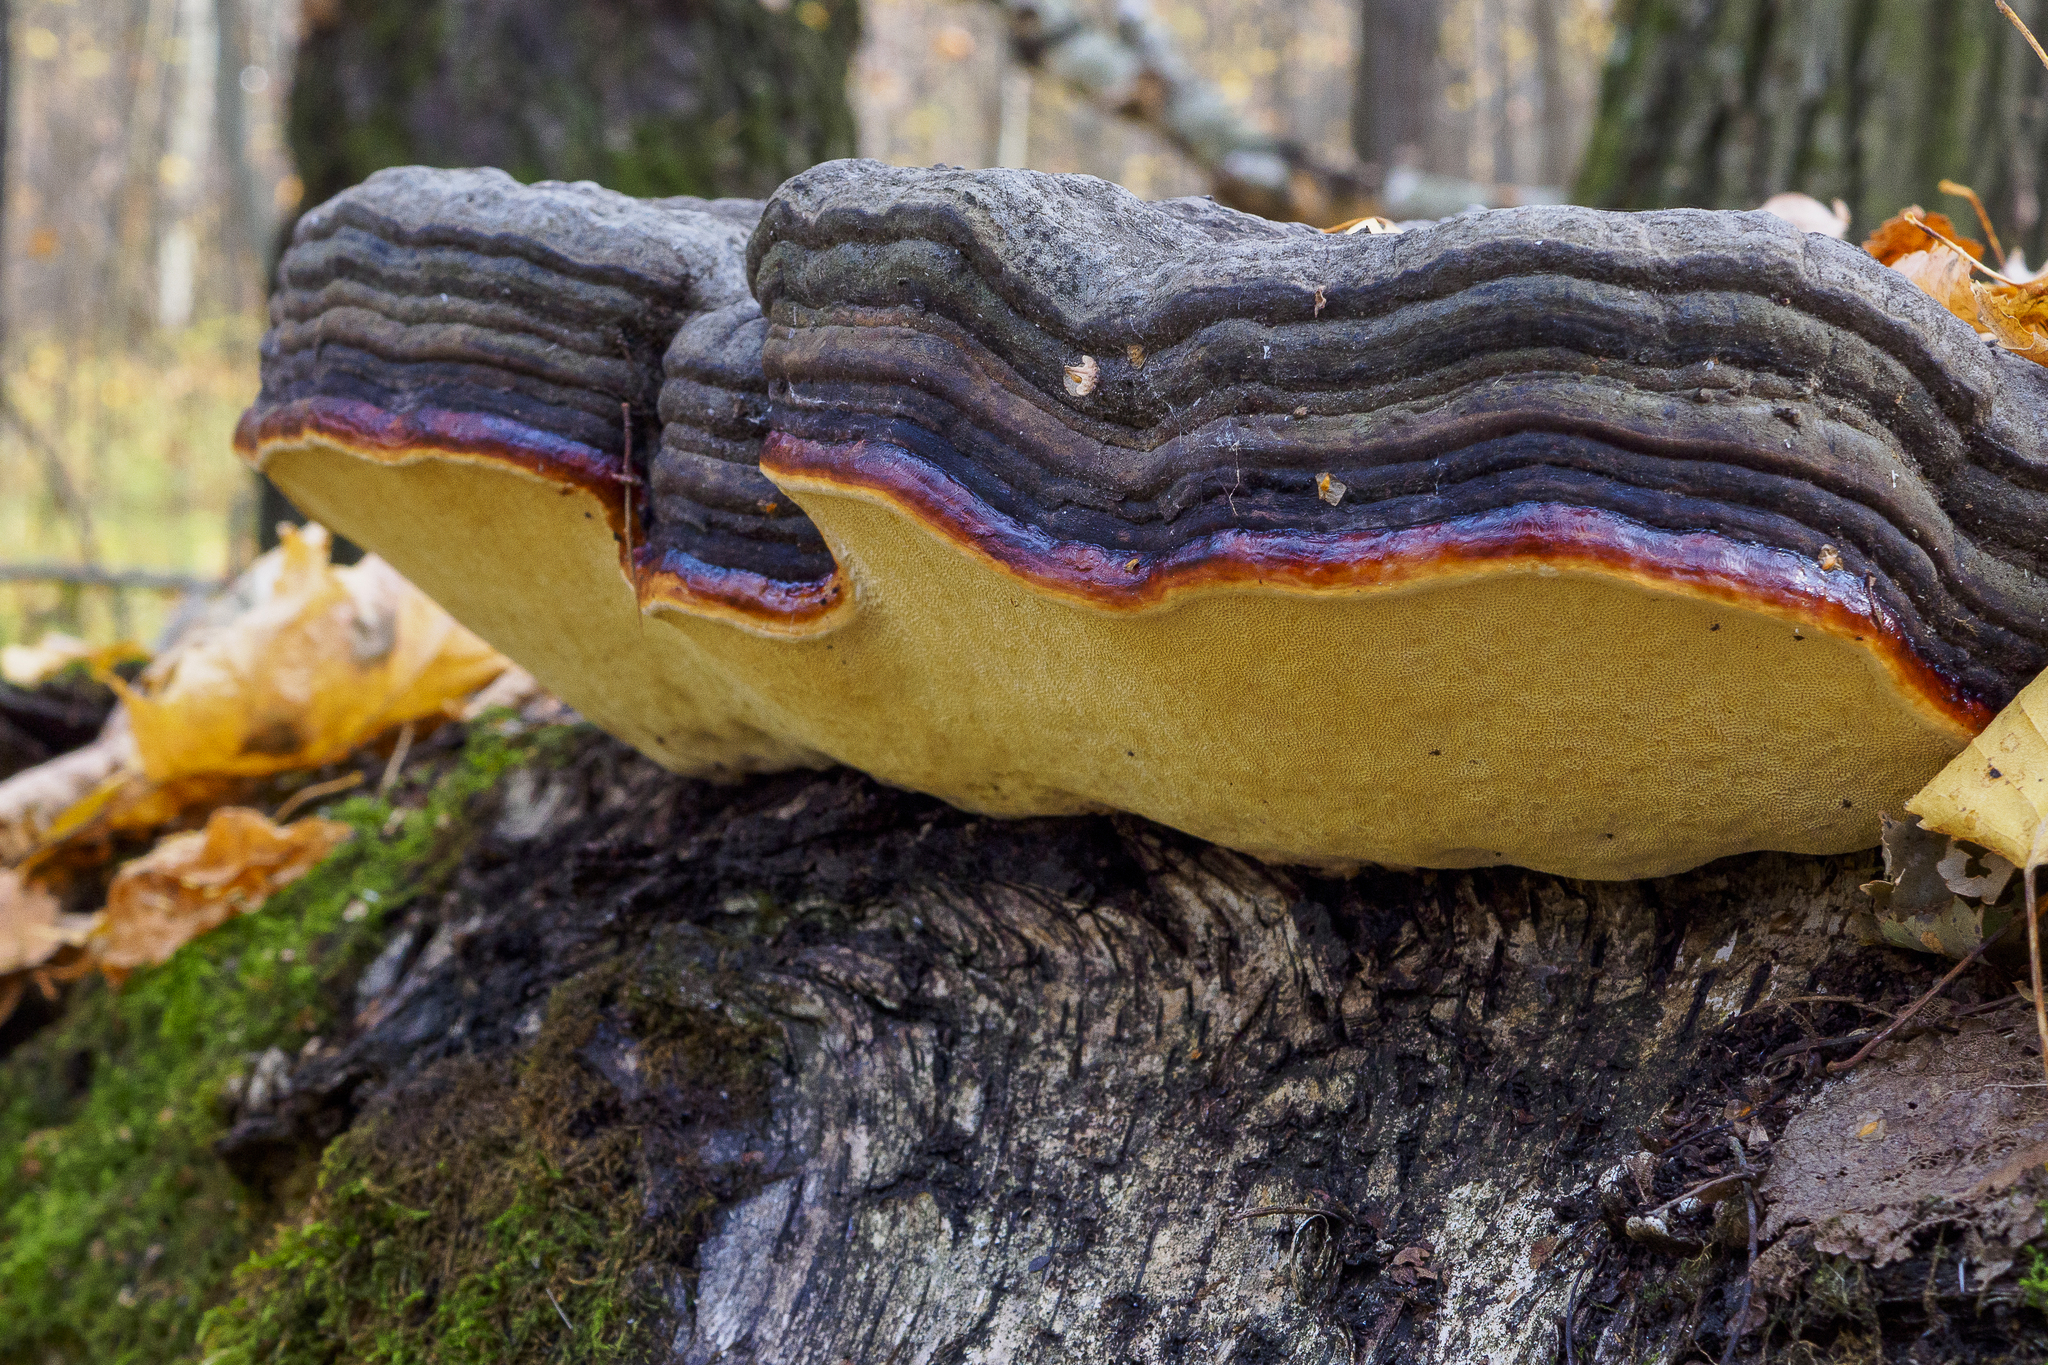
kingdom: Fungi
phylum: Basidiomycota
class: Agaricomycetes
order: Polyporales
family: Fomitopsidaceae
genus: Fomitopsis
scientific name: Fomitopsis pinicola
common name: Red-belted bracket
